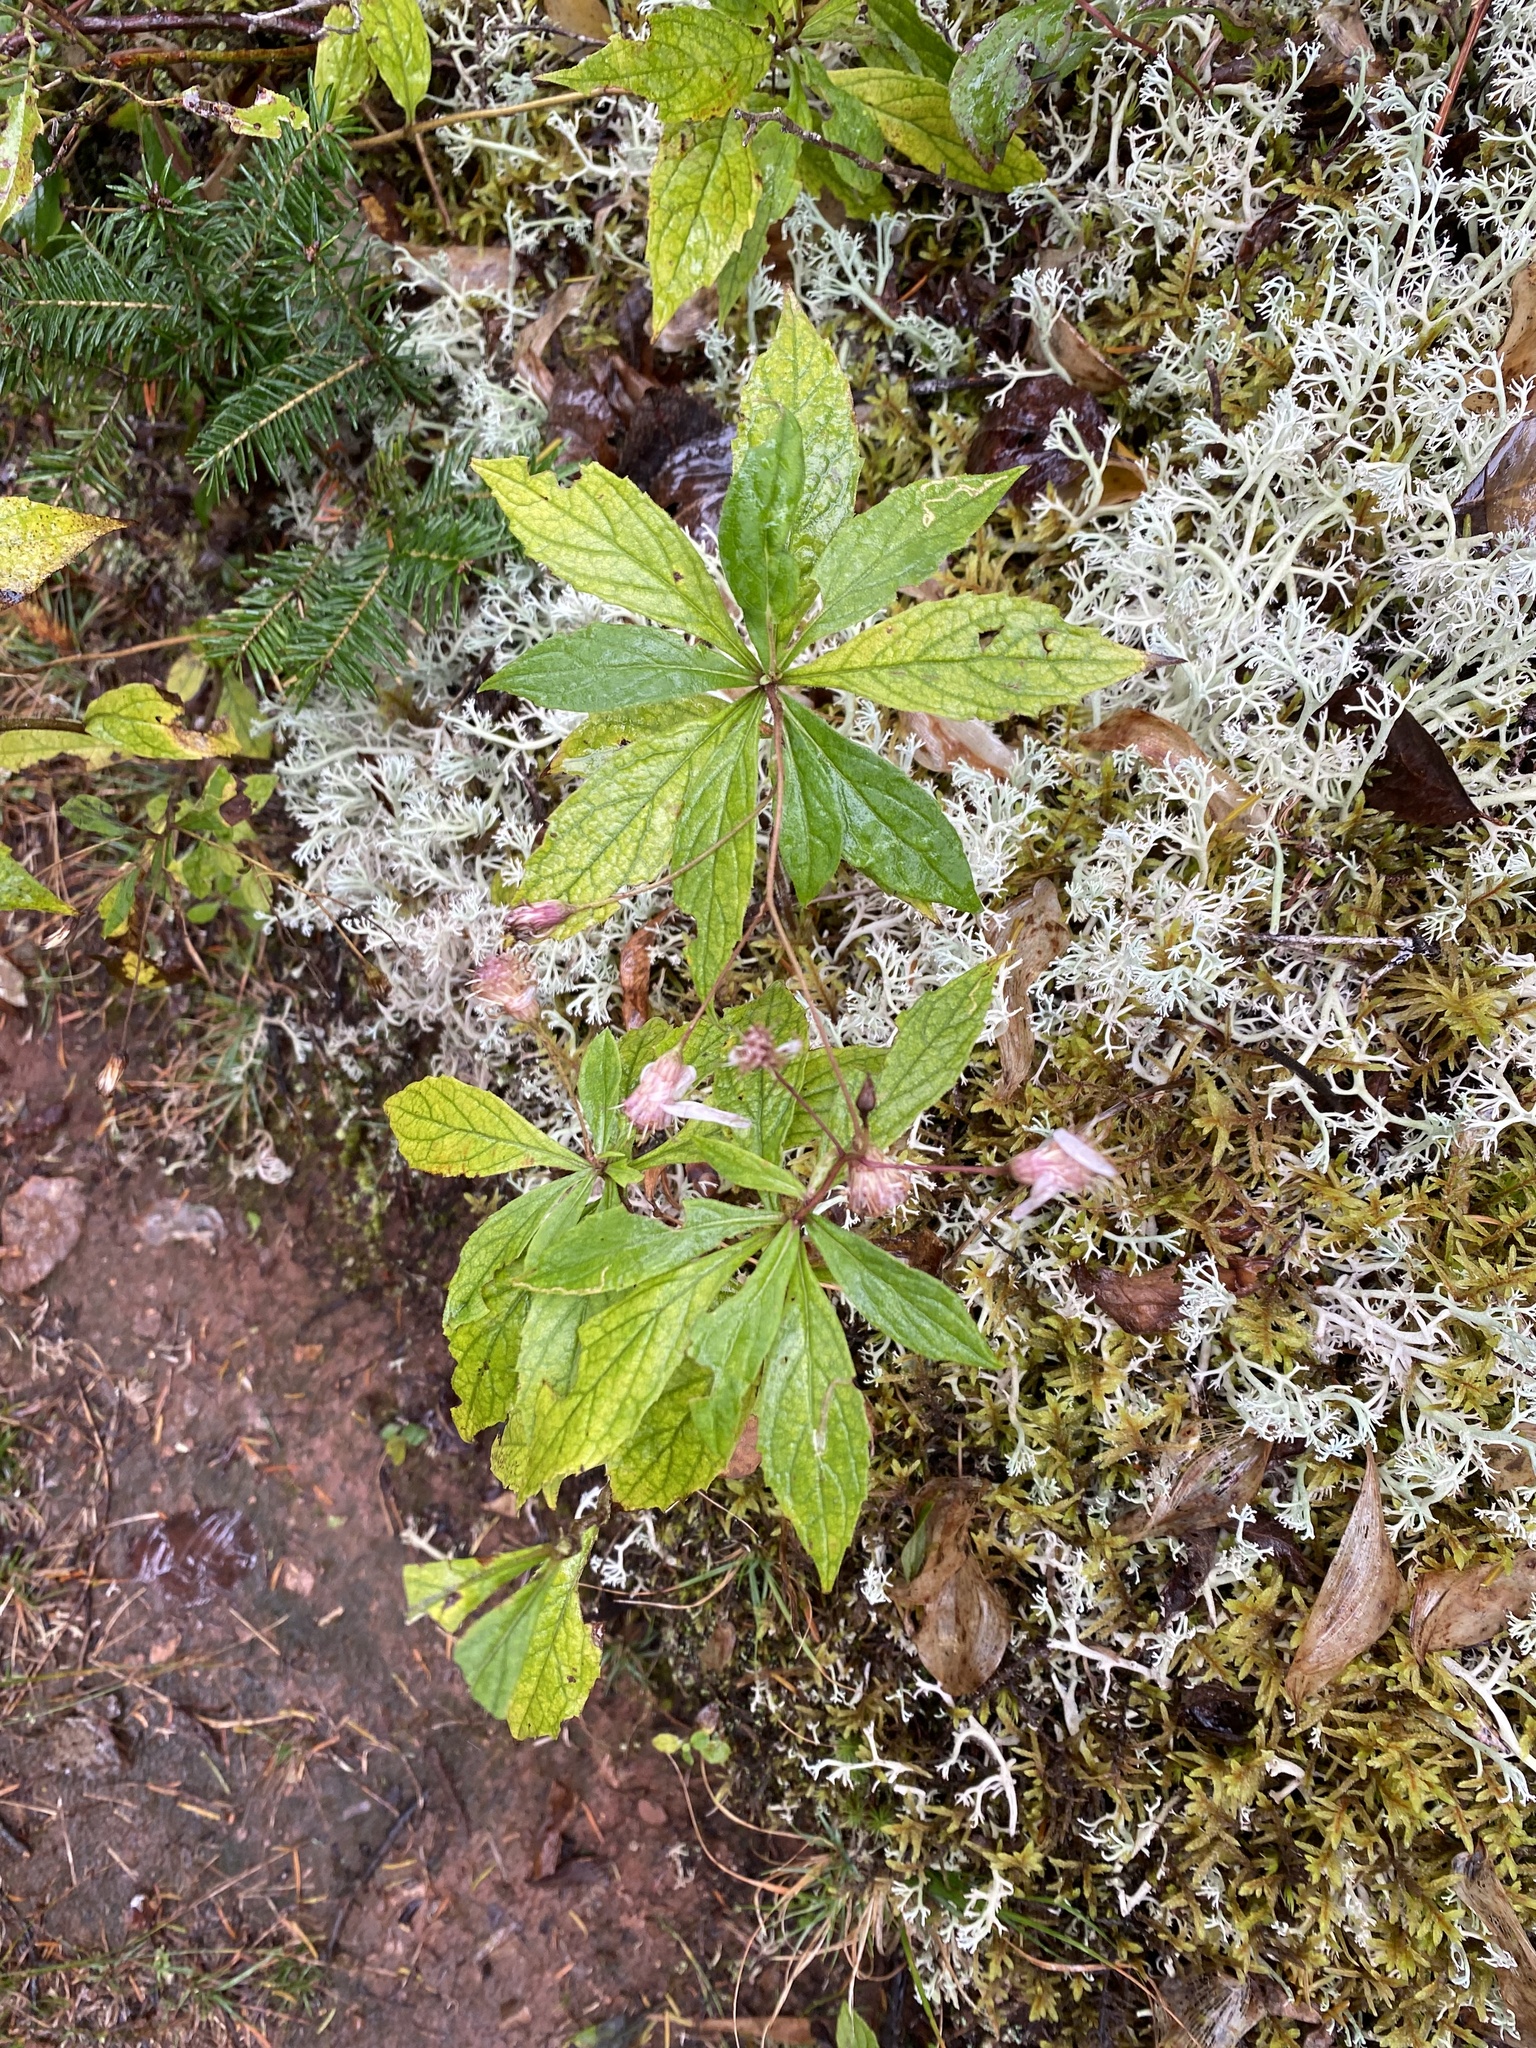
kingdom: Plantae
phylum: Tracheophyta
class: Magnoliopsida
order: Asterales
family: Asteraceae
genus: Oclemena
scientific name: Oclemena acuminata
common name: Mountain aster
